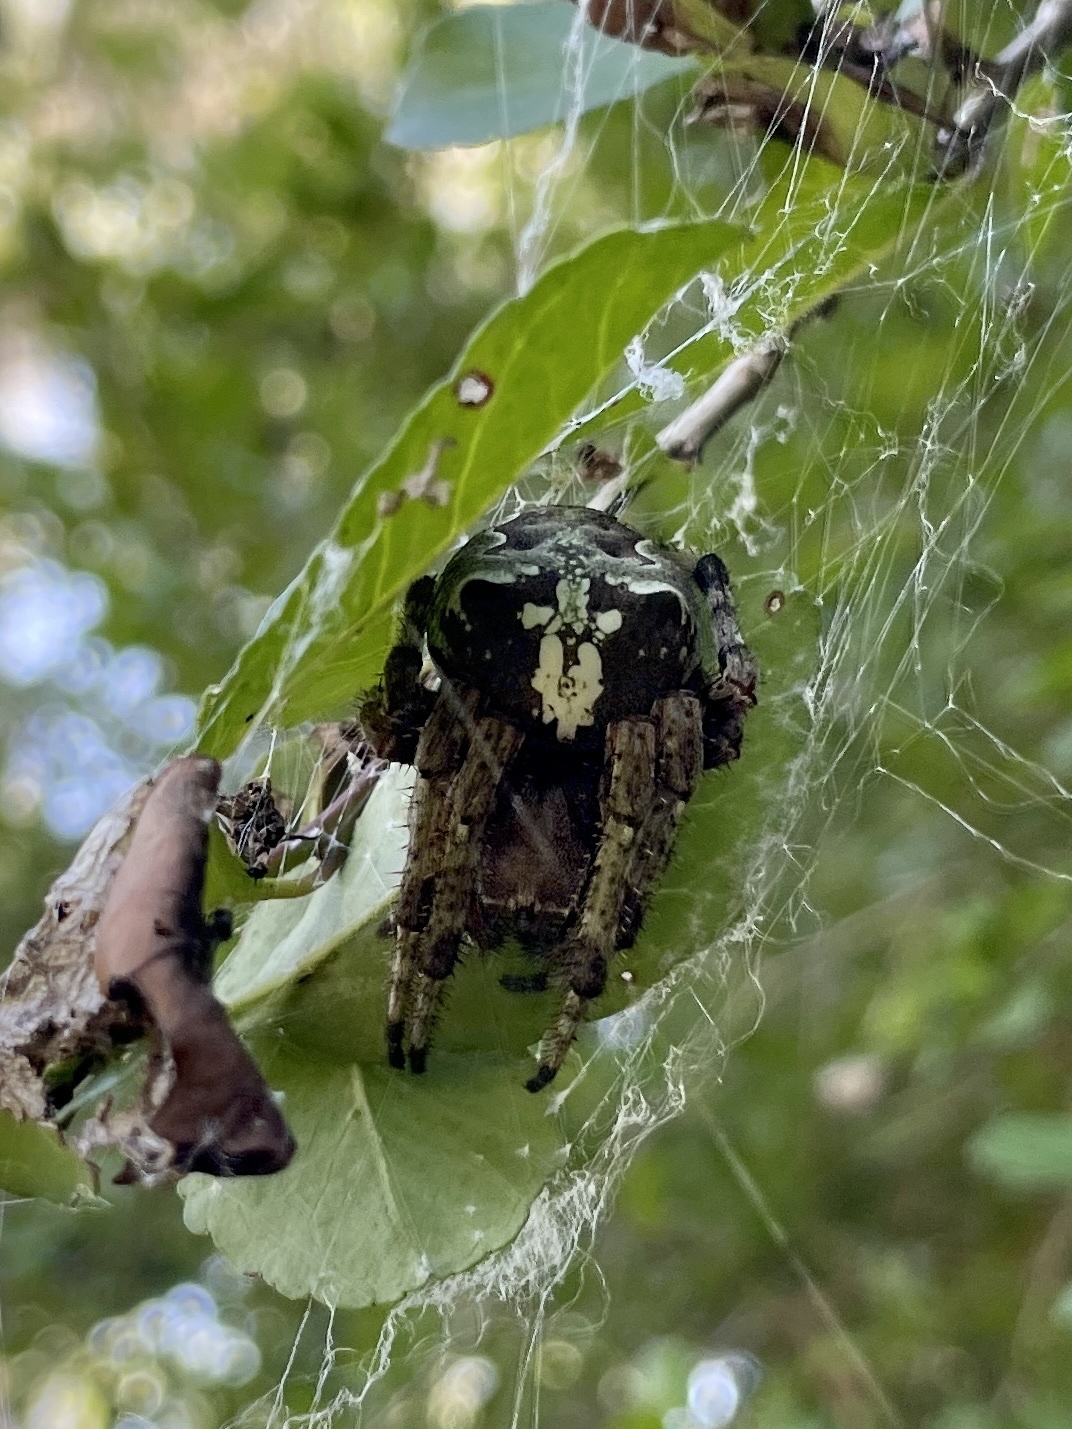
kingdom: Animalia
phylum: Arthropoda
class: Arachnida
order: Araneae
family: Araneidae
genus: Araneus
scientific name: Araneus bicentenarius
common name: Giant lichen orbweaver
